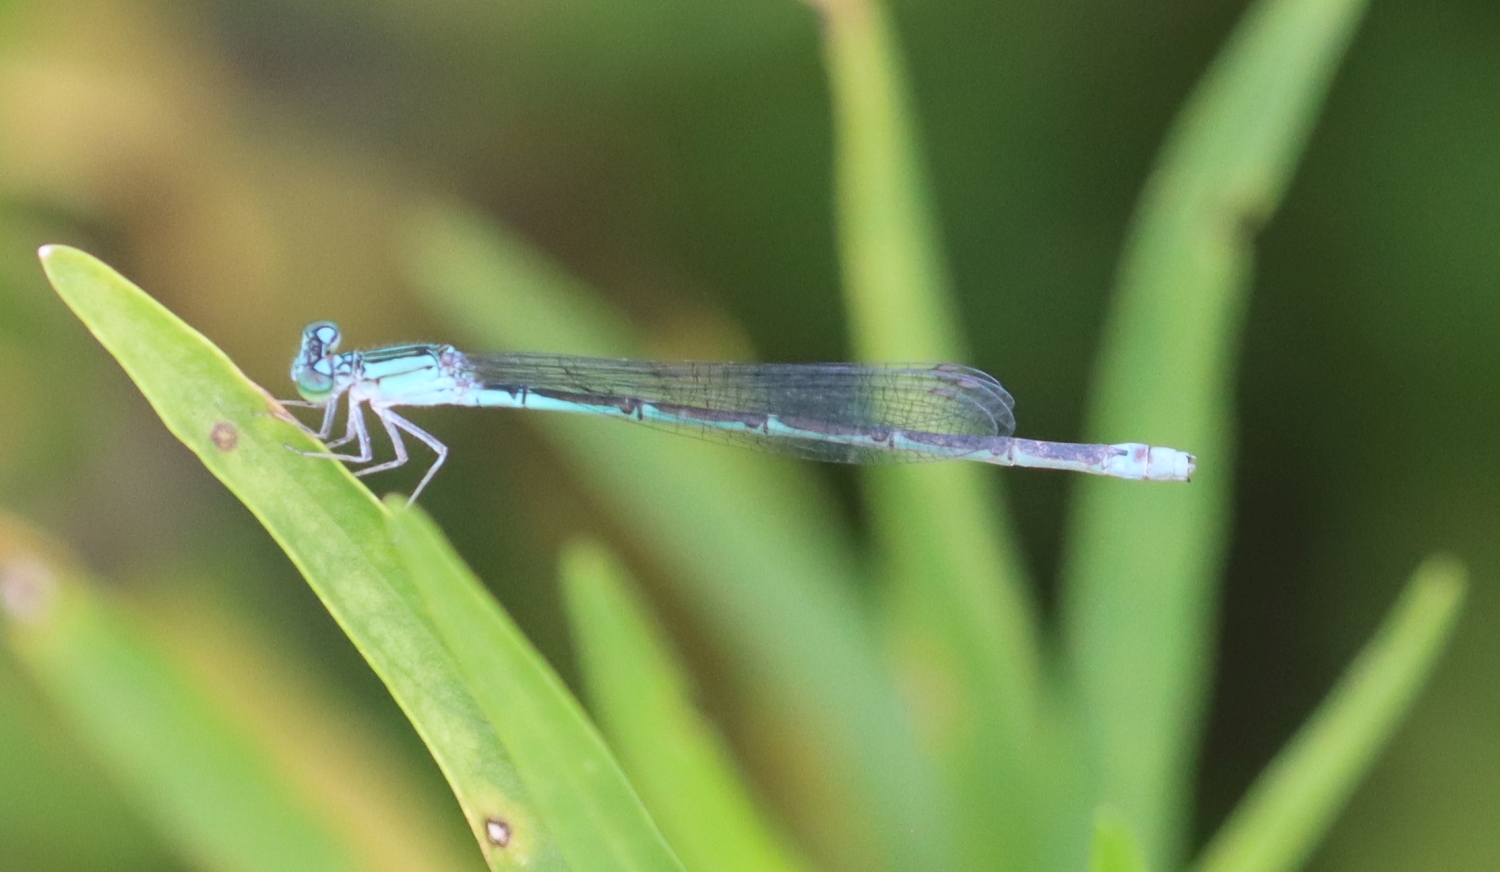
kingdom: Animalia
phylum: Arthropoda
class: Insecta
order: Odonata
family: Coenagrionidae
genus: Enallagma
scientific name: Enallagma traviatum
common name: Slender bluet
